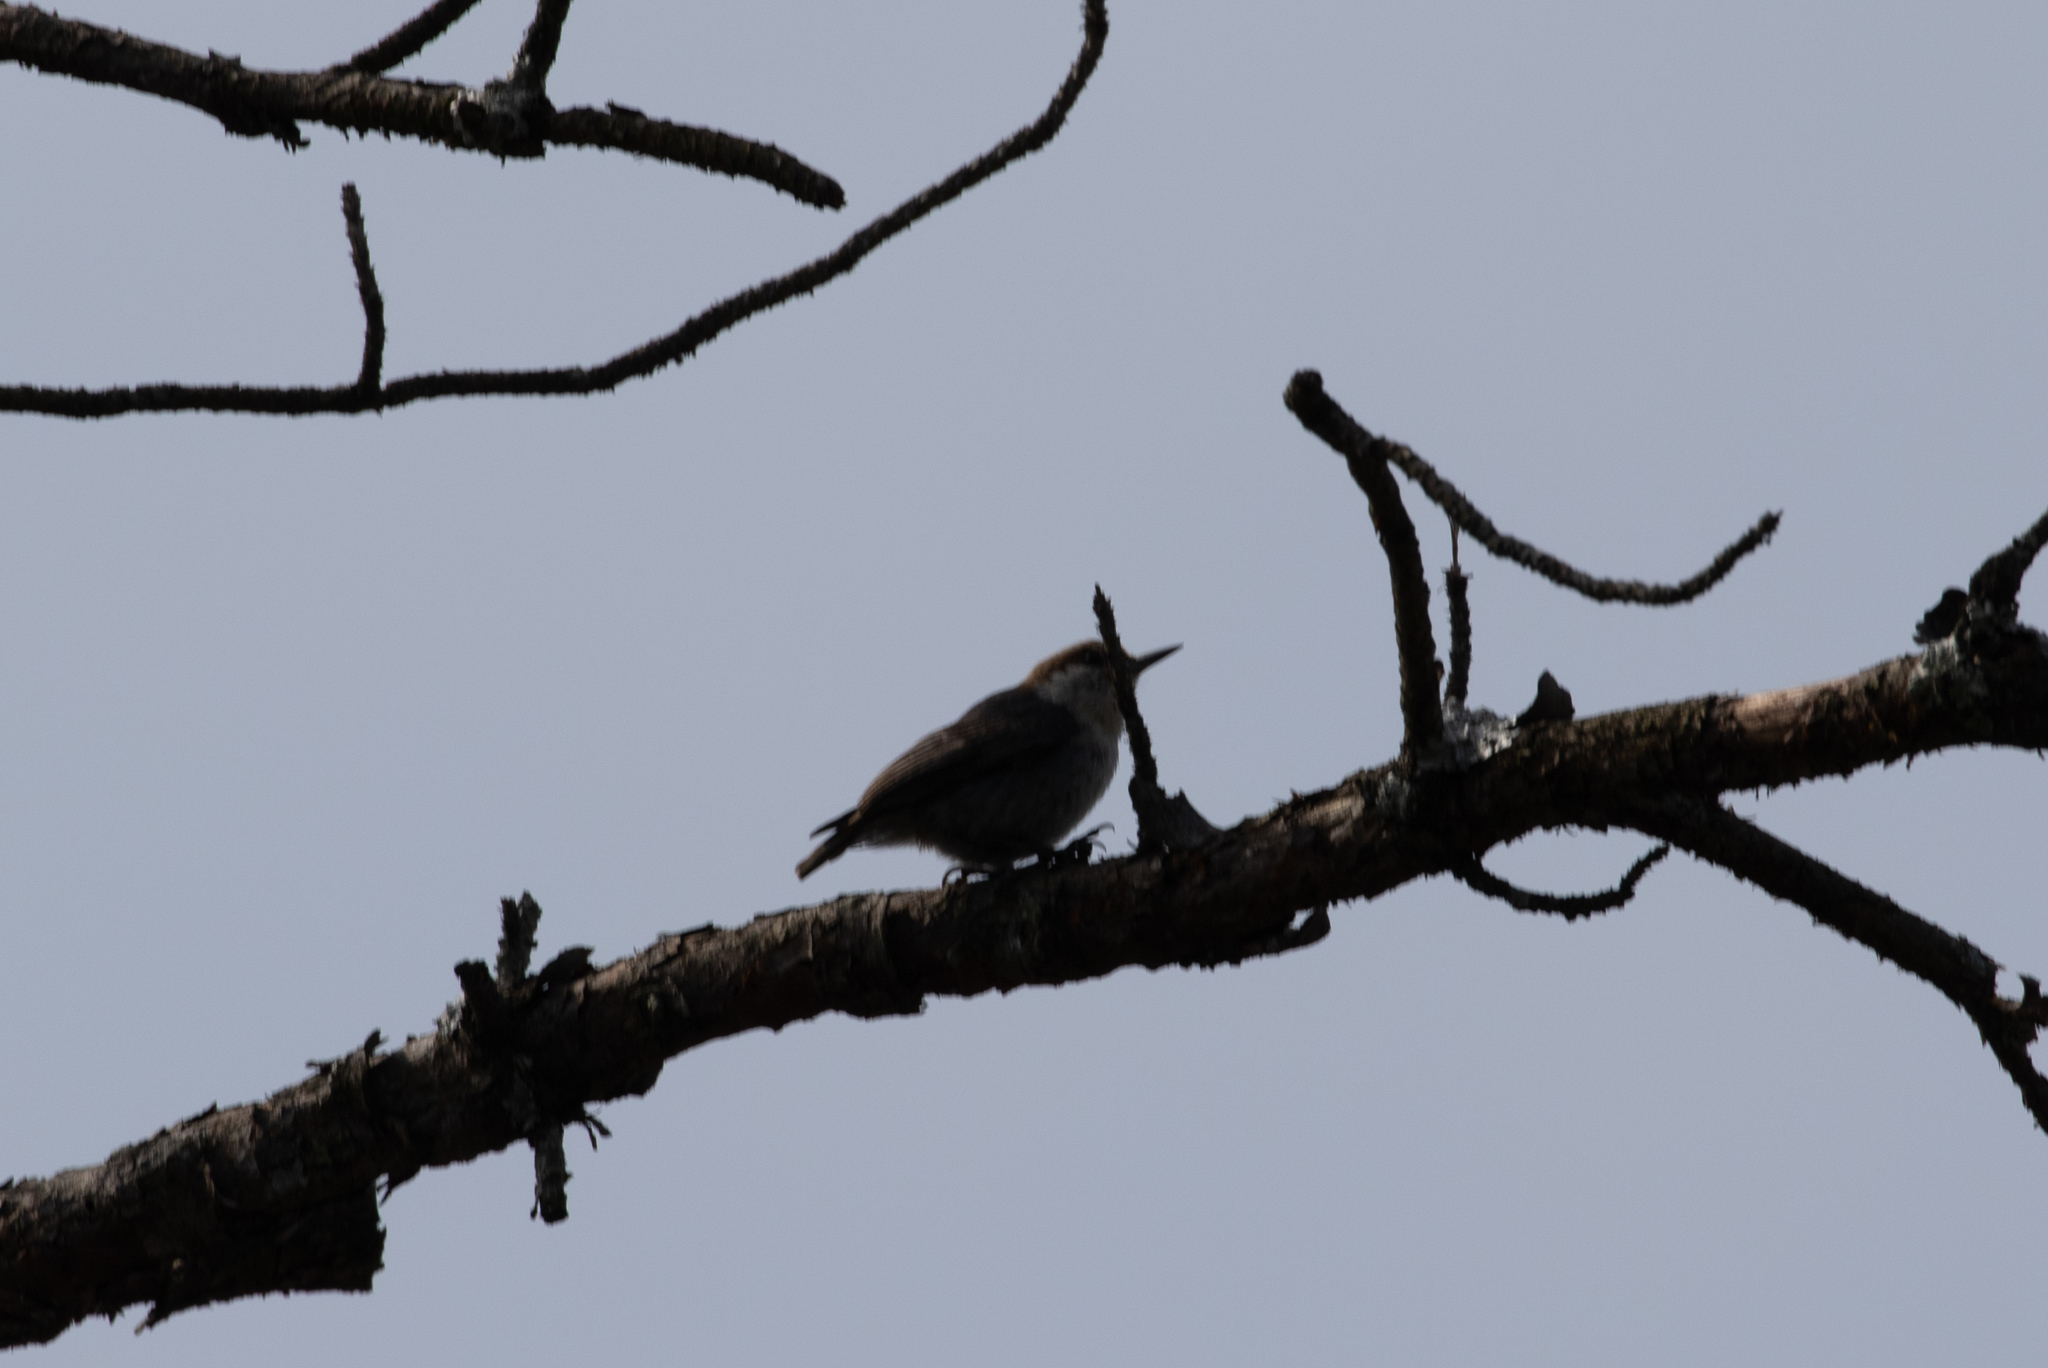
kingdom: Animalia
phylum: Chordata
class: Aves
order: Passeriformes
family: Sittidae
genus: Sitta
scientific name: Sitta pusilla
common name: Brown-headed nuthatch
